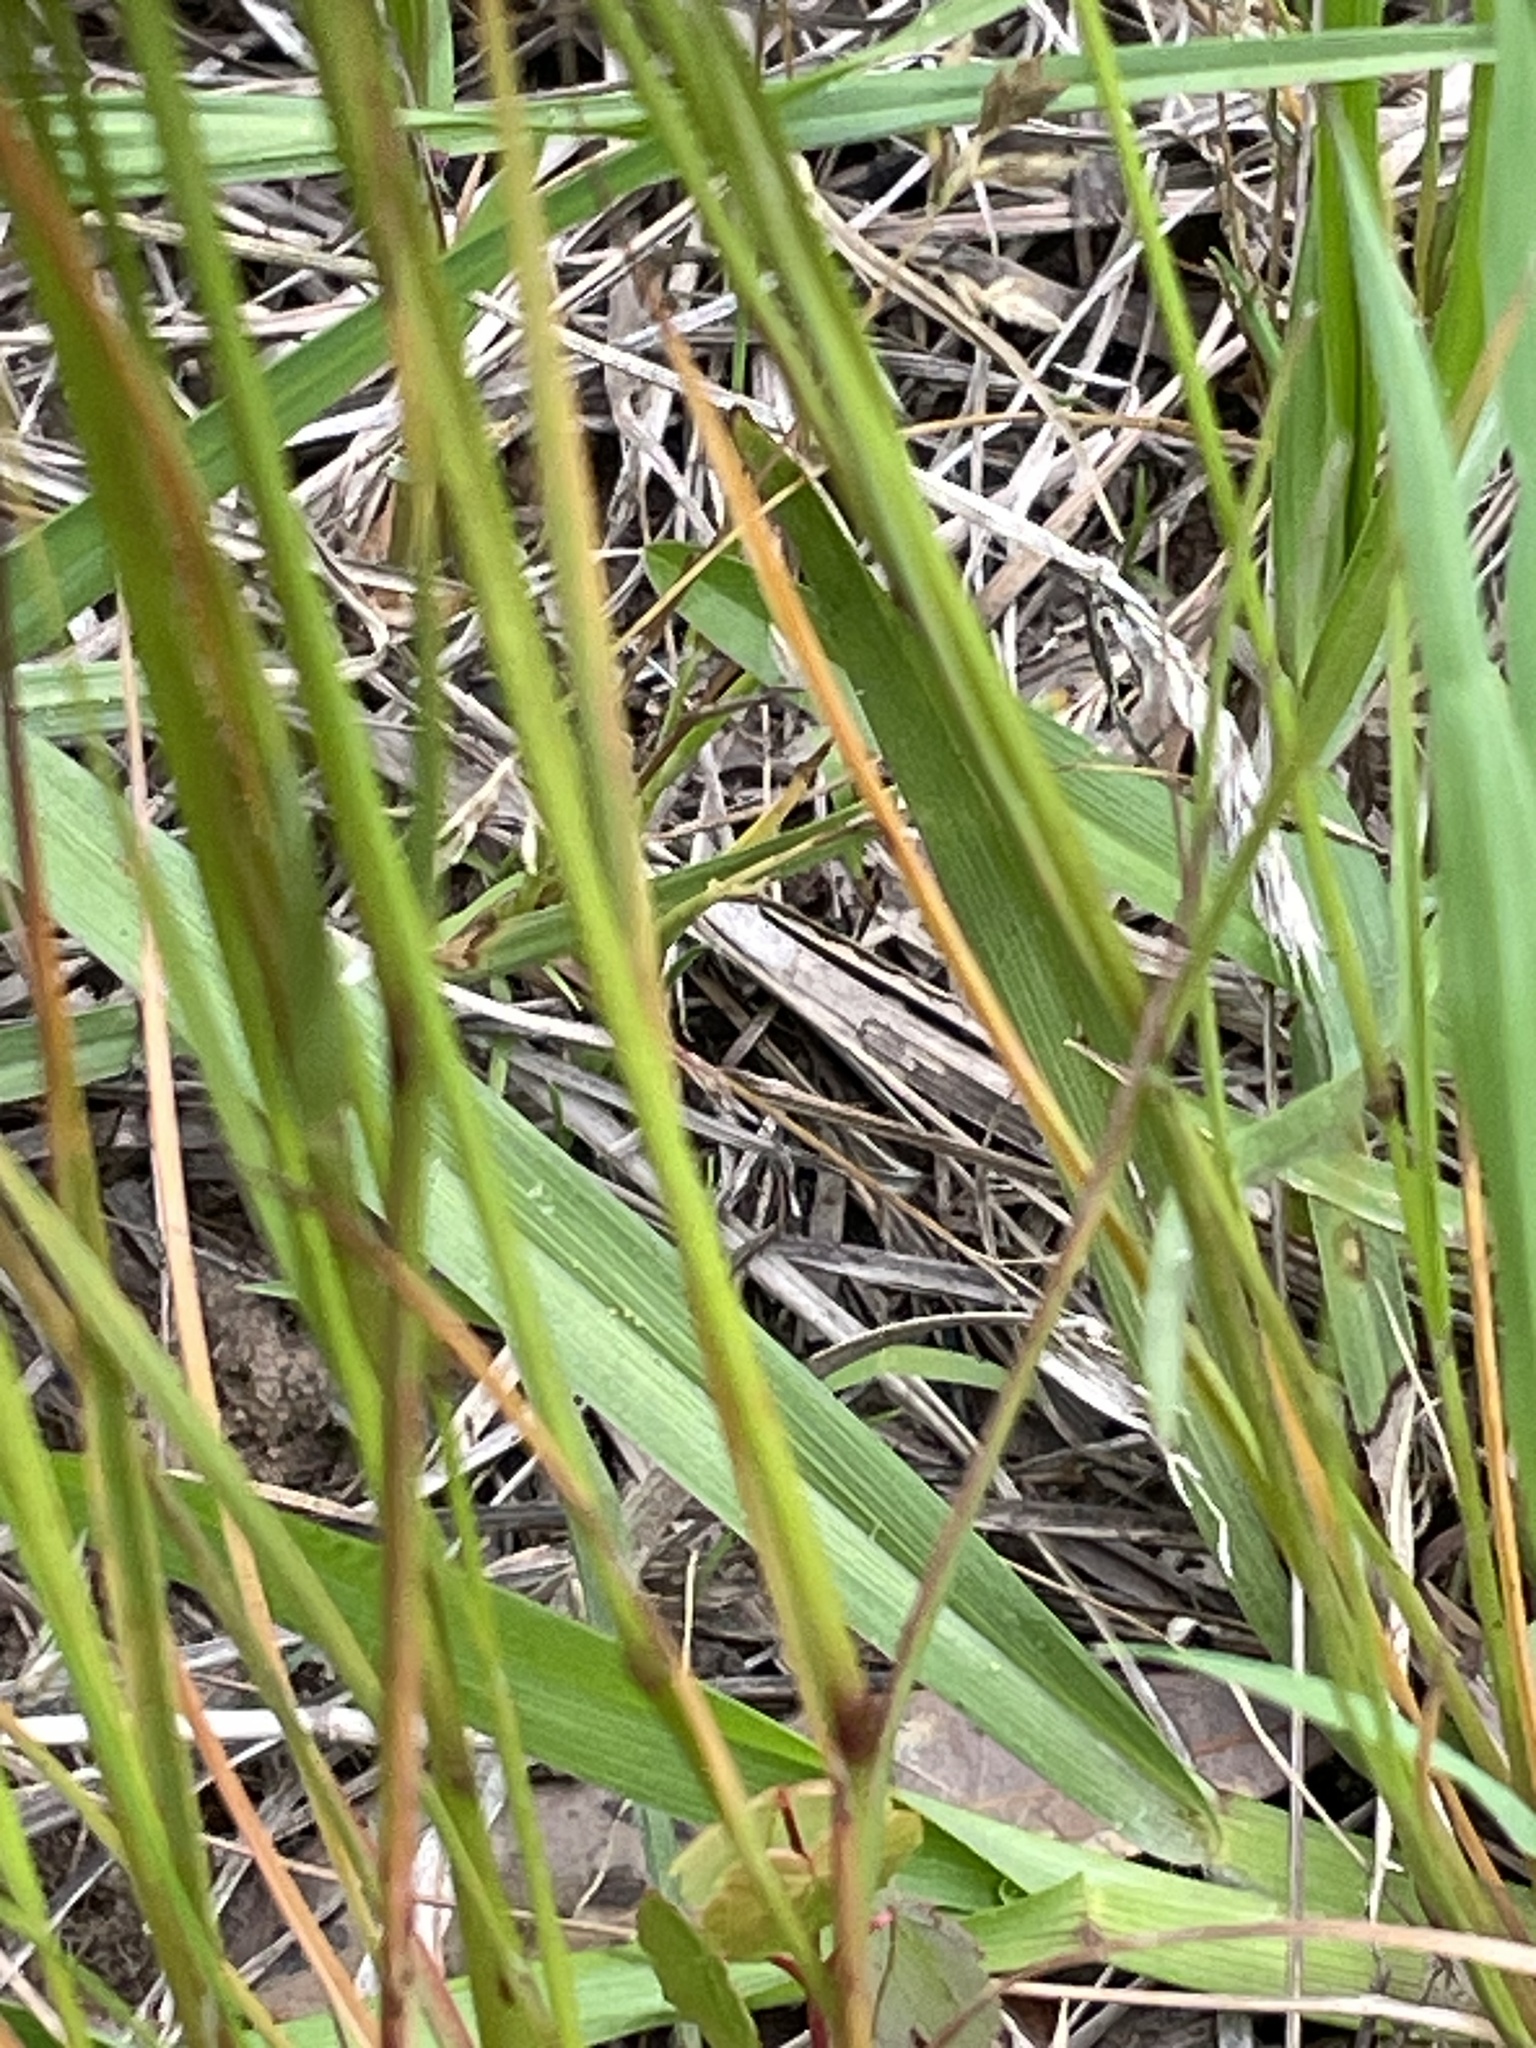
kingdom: Plantae
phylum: Tracheophyta
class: Liliopsida
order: Poales
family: Poaceae
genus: Agrostis
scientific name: Agrostis hyemalis
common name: Small bent
